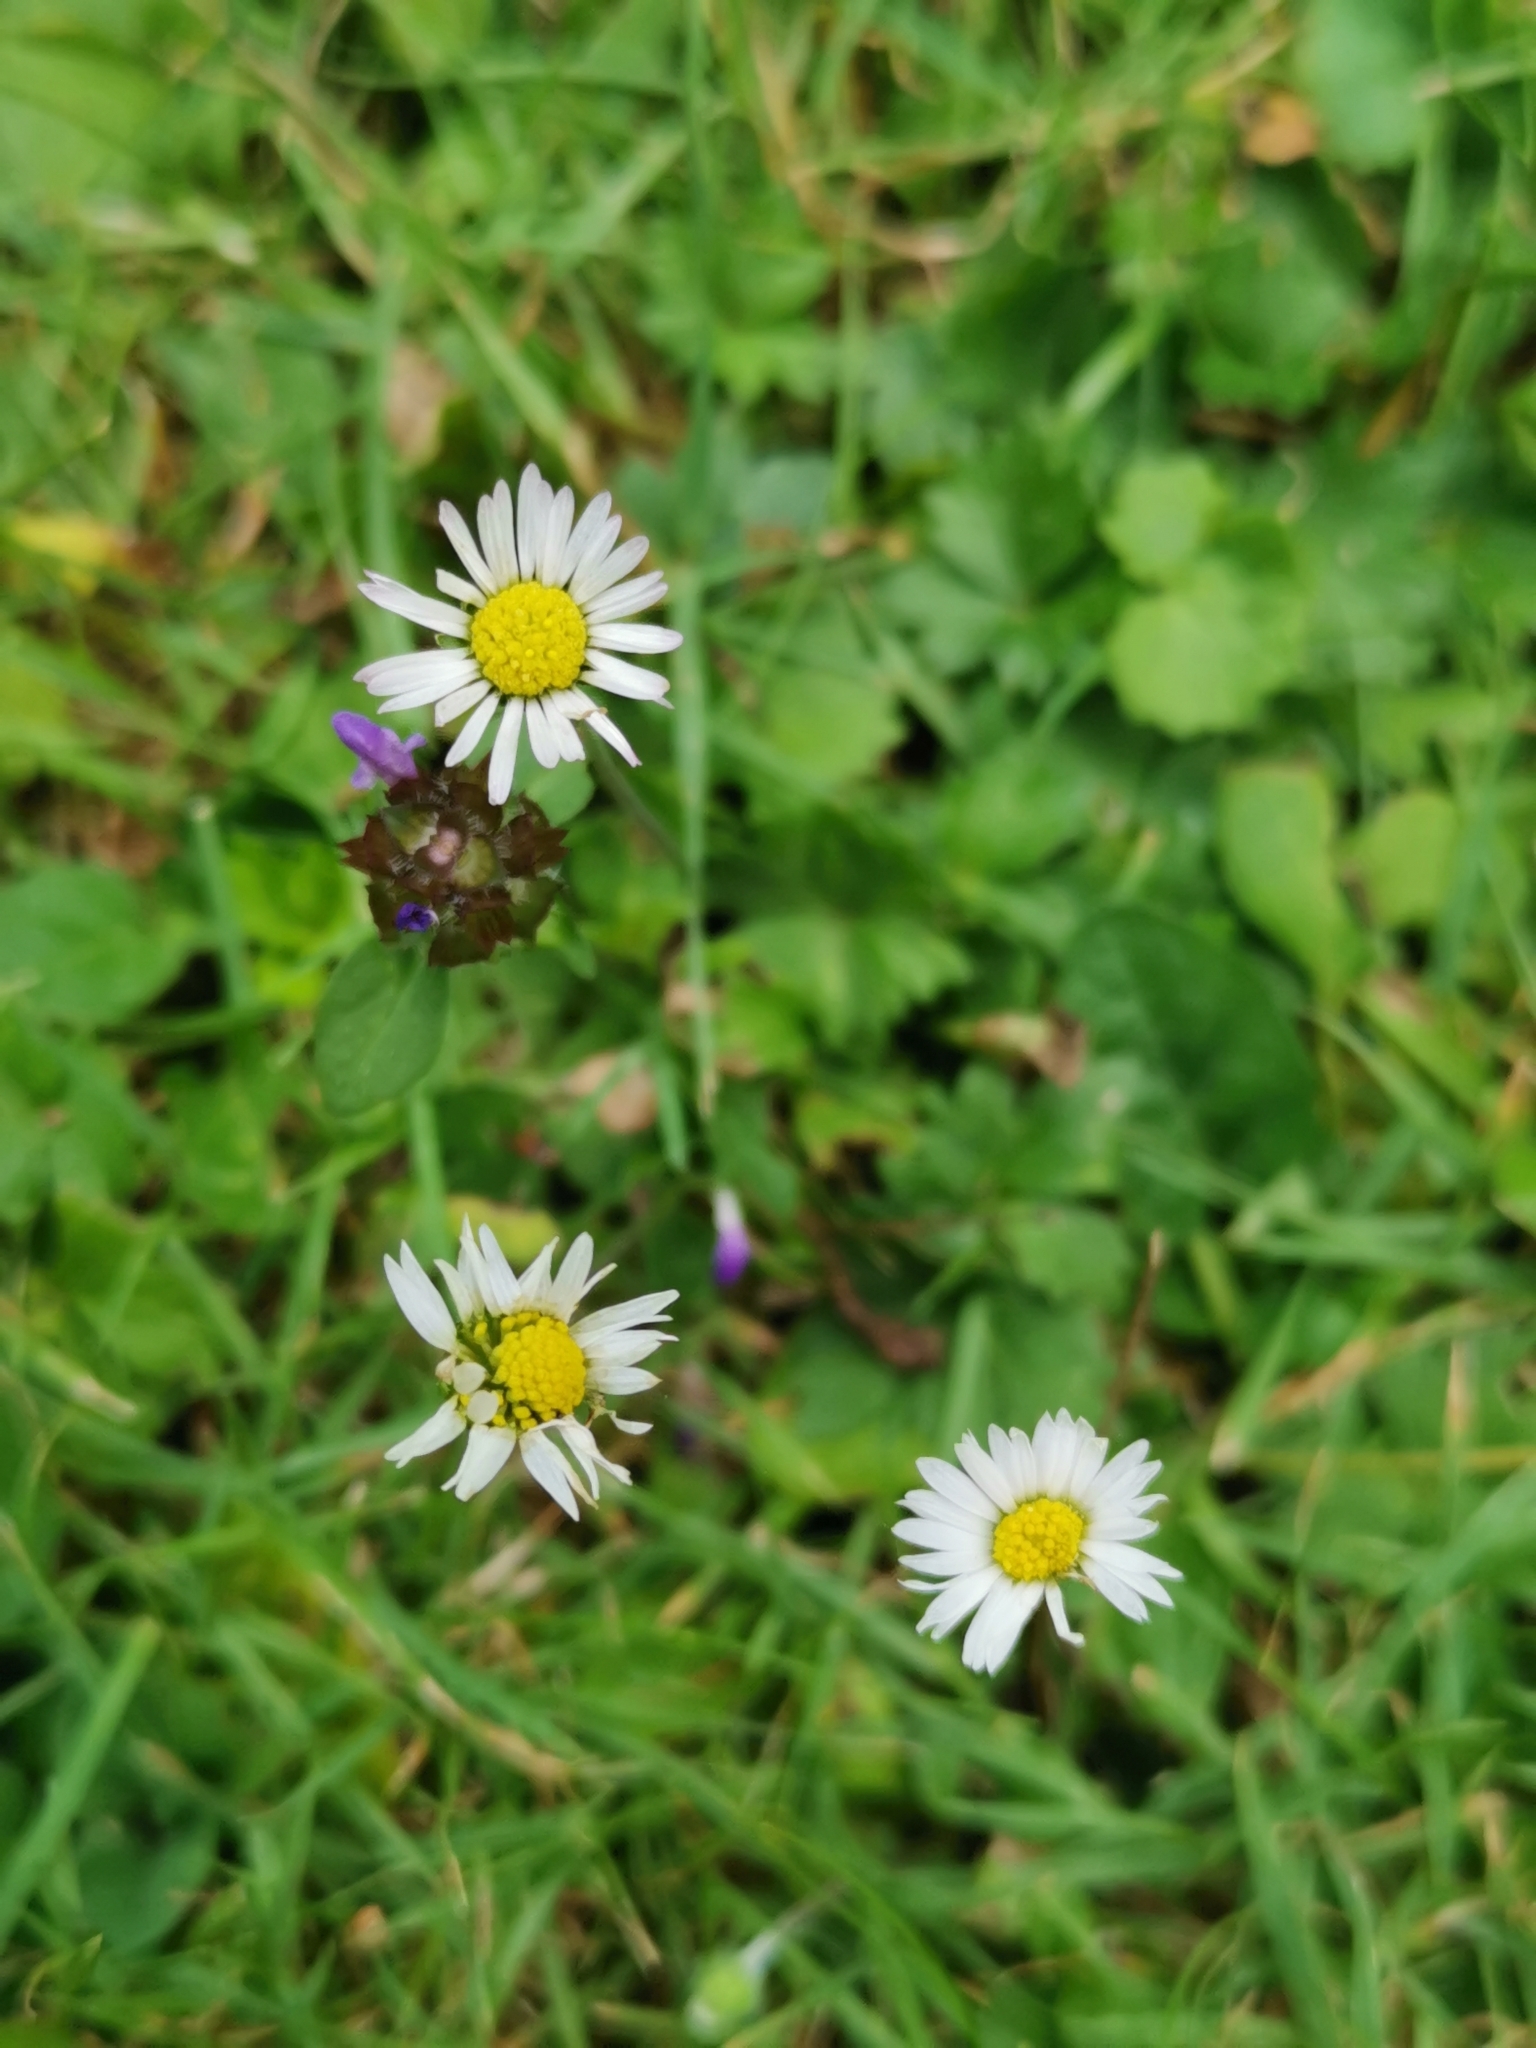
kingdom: Plantae
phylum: Tracheophyta
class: Magnoliopsida
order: Asterales
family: Asteraceae
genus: Bellis
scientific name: Bellis perennis
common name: Lawndaisy
